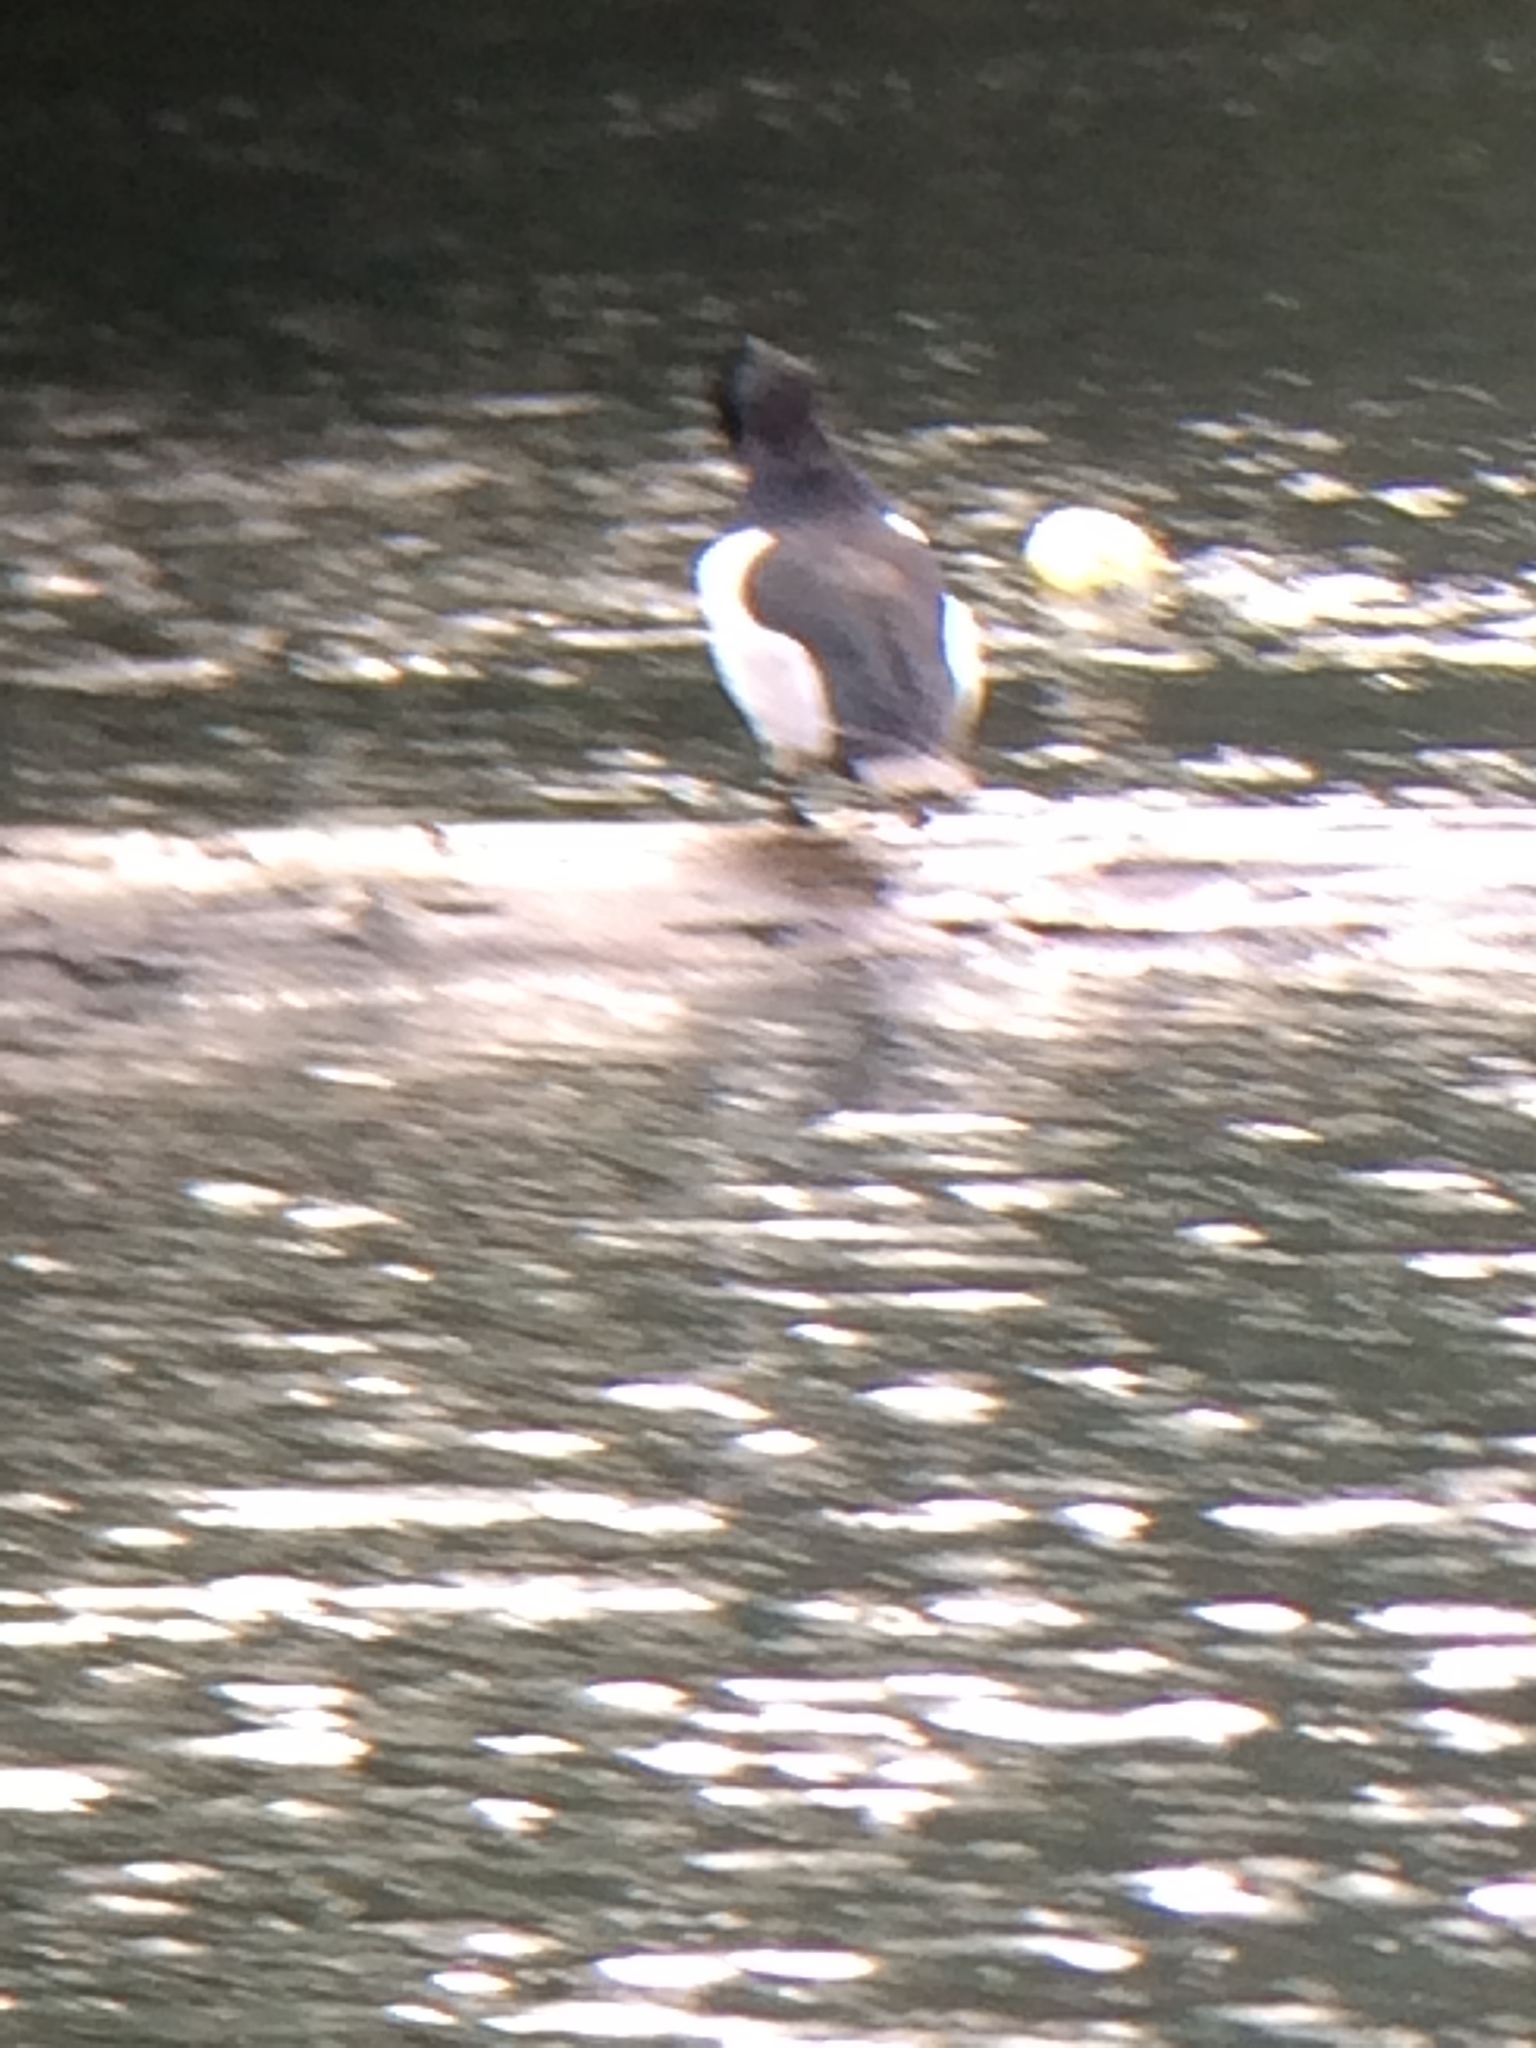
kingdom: Animalia
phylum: Chordata
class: Aves
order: Anseriformes
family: Anatidae
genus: Aythya
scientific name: Aythya collaris
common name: Ring-necked duck
